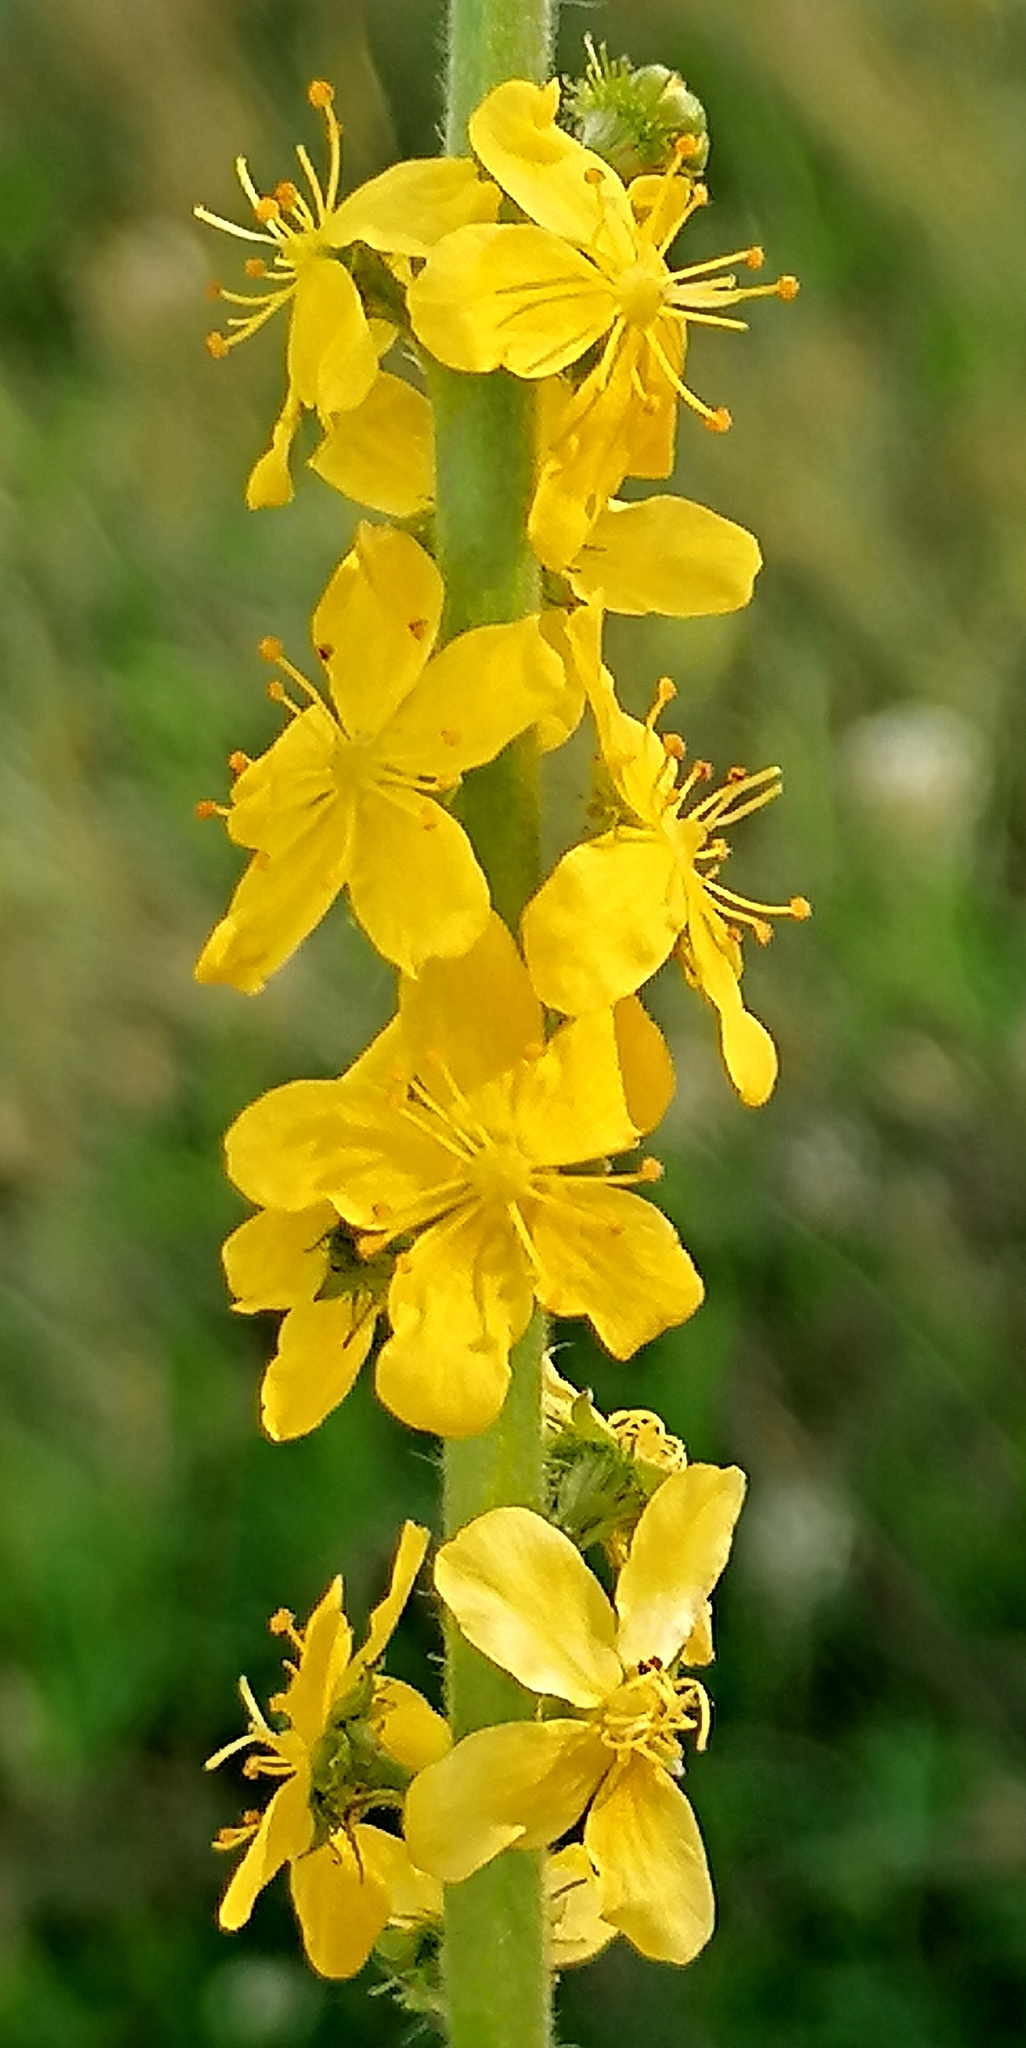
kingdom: Plantae
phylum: Tracheophyta
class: Magnoliopsida
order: Rosales
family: Rosaceae
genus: Agrimonia
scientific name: Agrimonia eupatoria
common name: Agrimony
